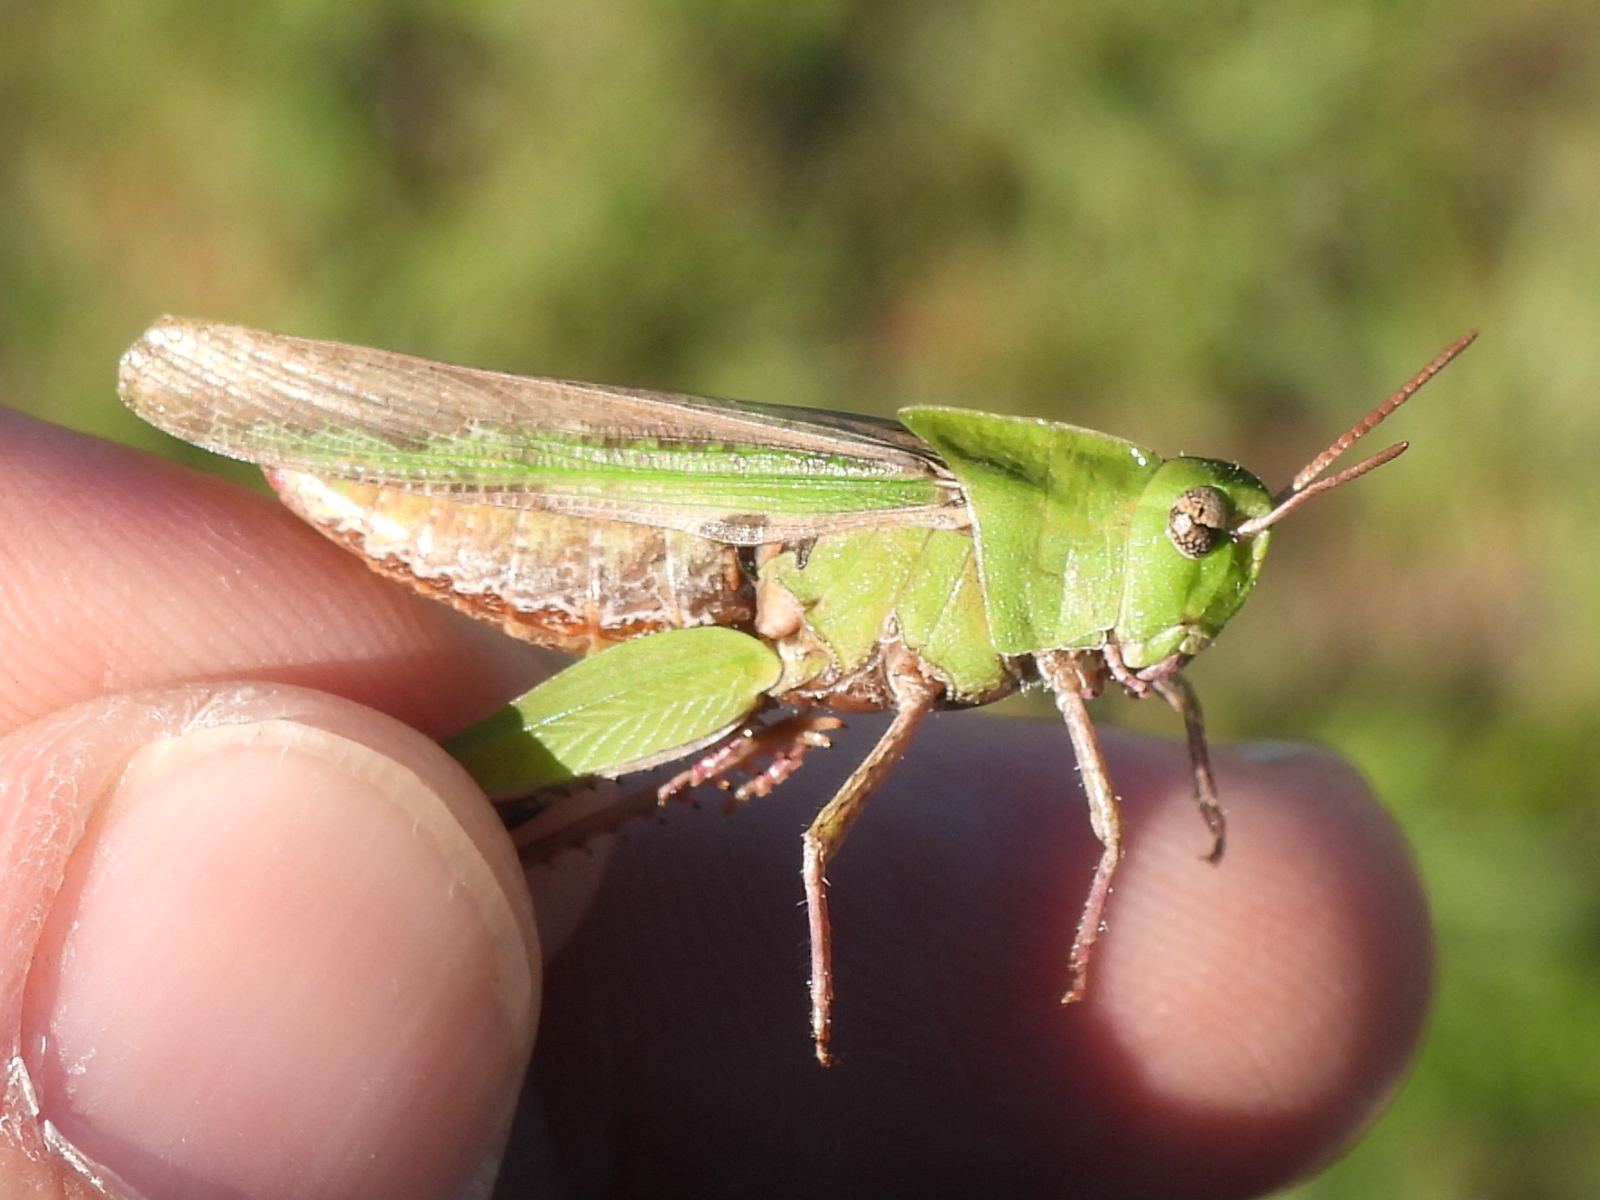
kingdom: Animalia
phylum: Arthropoda
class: Insecta
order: Orthoptera
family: Acrididae
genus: Chortophaga
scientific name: Chortophaga viridifasciata
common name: Green-striped grasshopper
